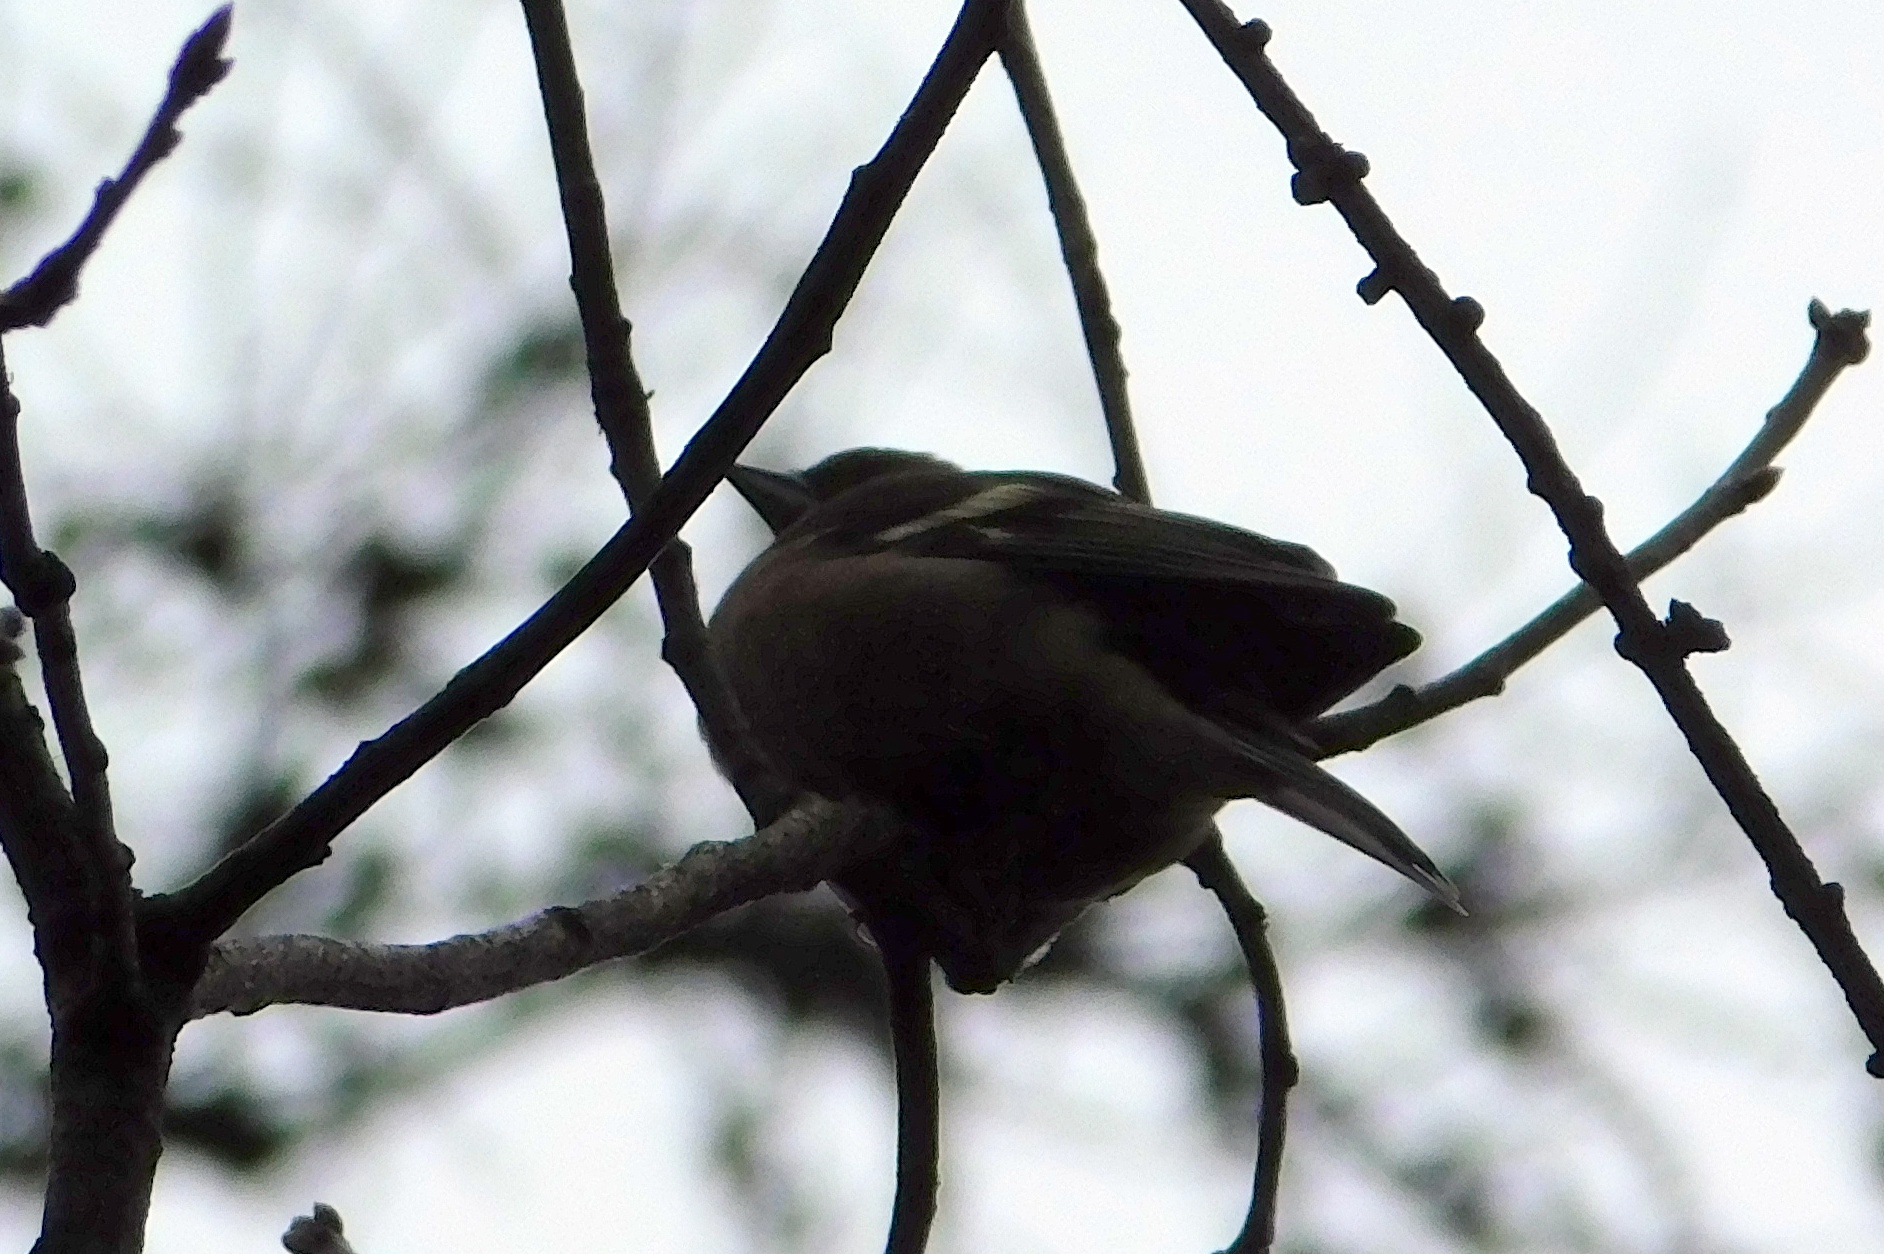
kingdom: Animalia
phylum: Chordata
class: Aves
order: Passeriformes
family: Fringillidae
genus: Fringilla
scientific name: Fringilla coelebs
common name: Common chaffinch
